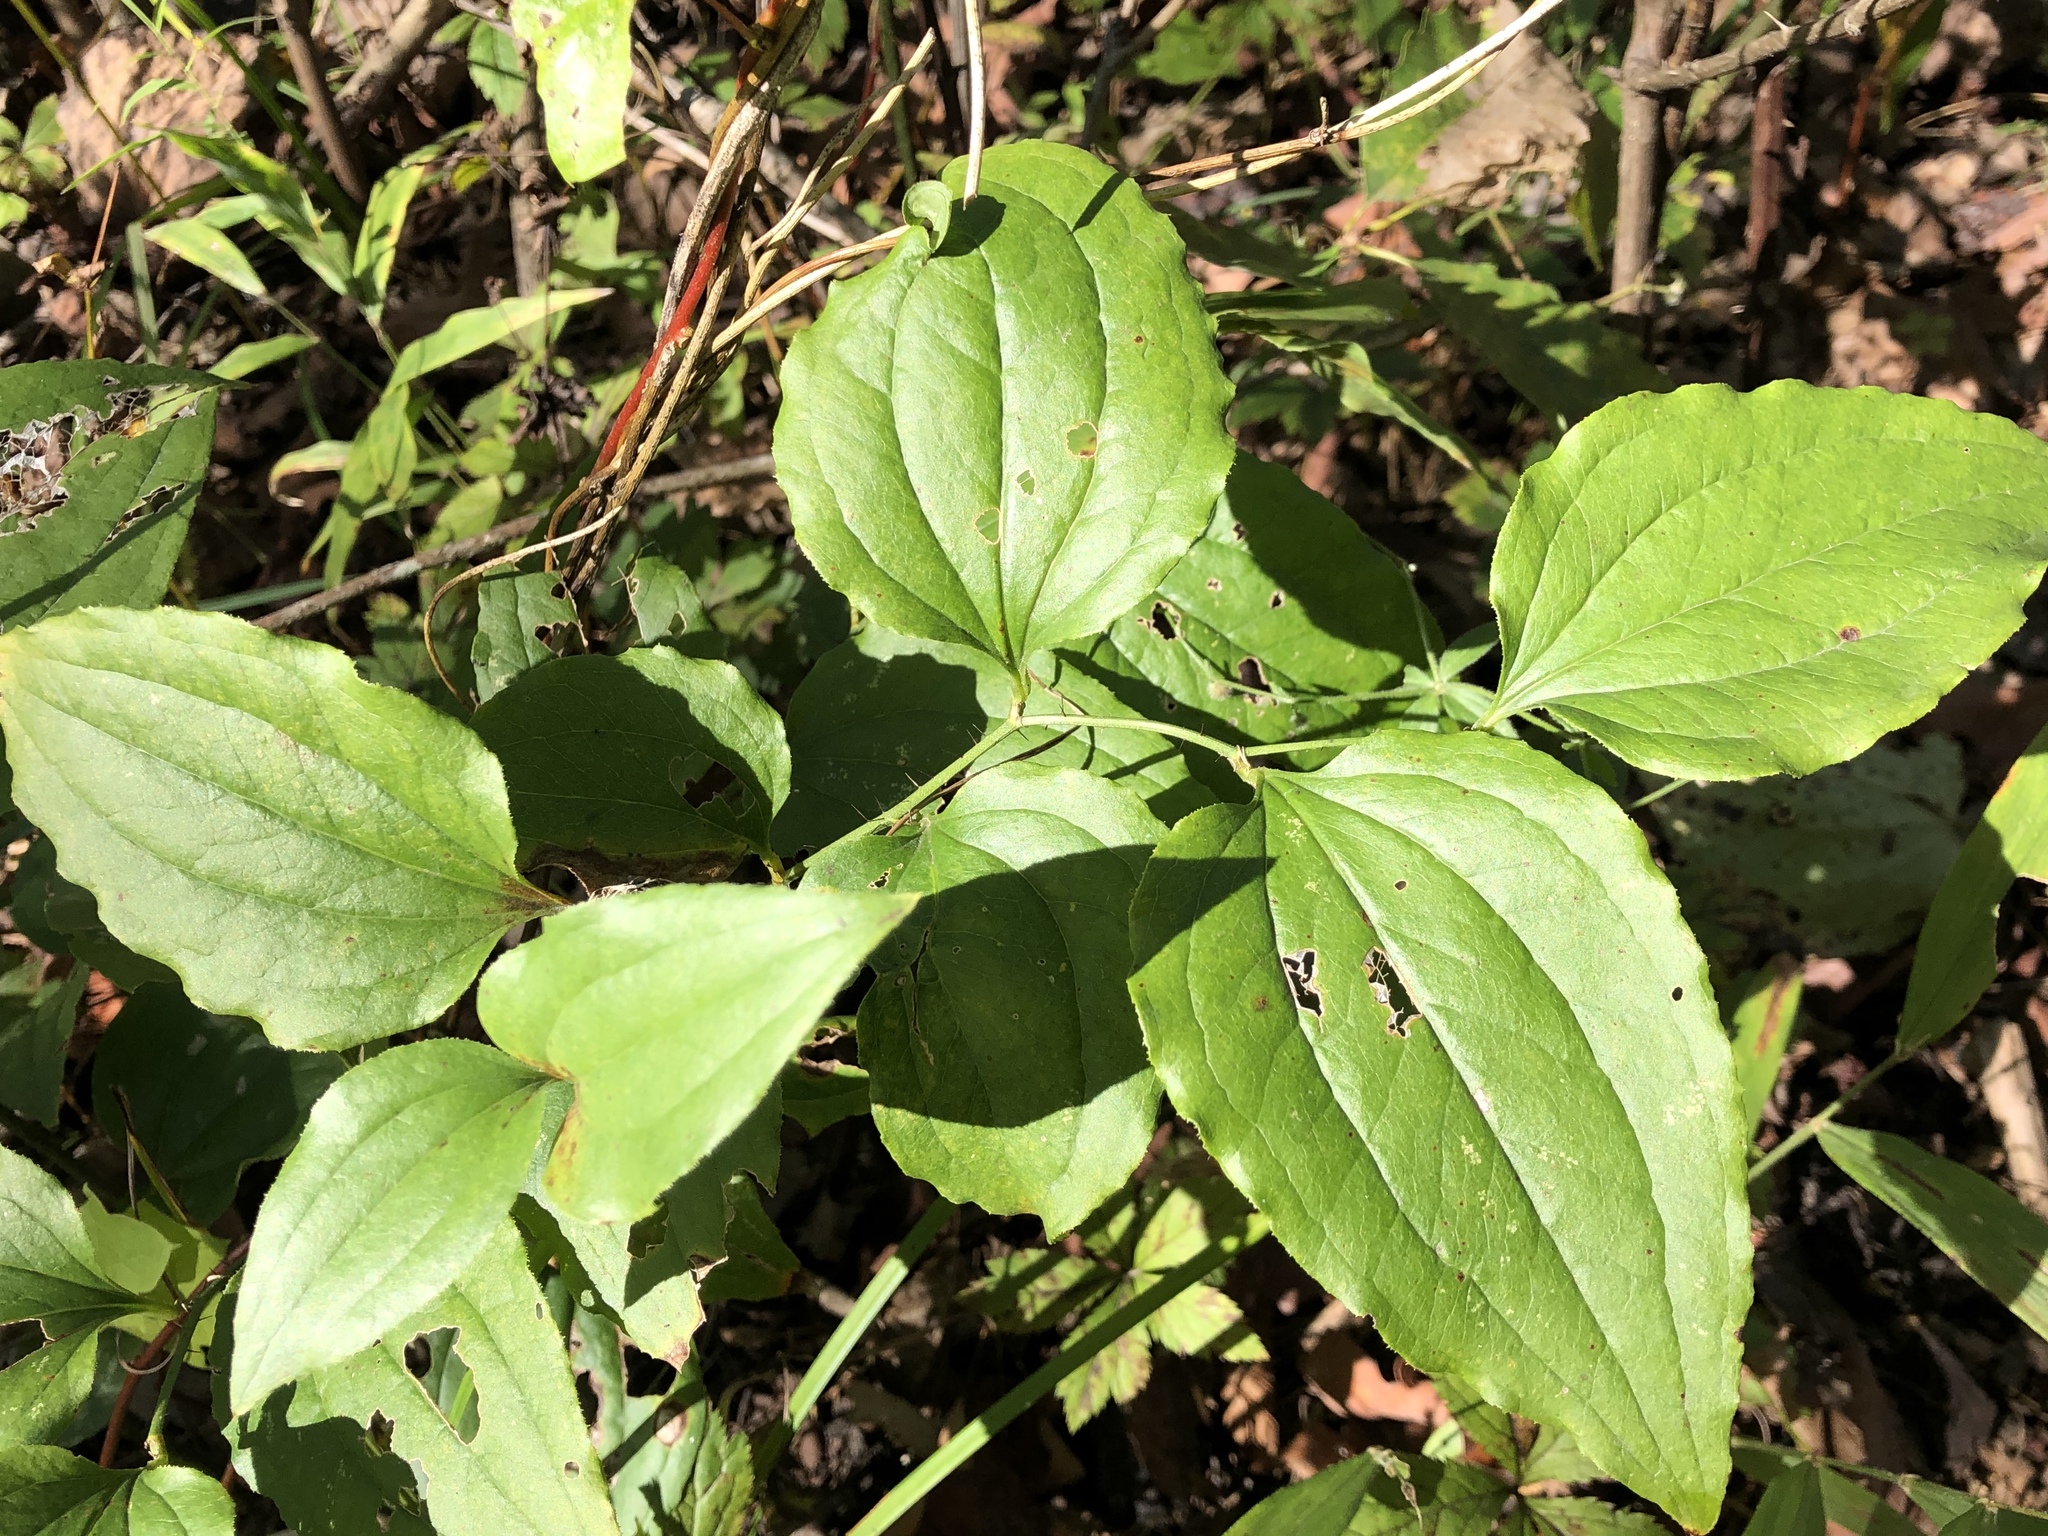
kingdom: Plantae
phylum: Tracheophyta
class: Liliopsida
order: Liliales
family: Smilacaceae
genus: Smilax
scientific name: Smilax tamnoides
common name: Hellfetter
